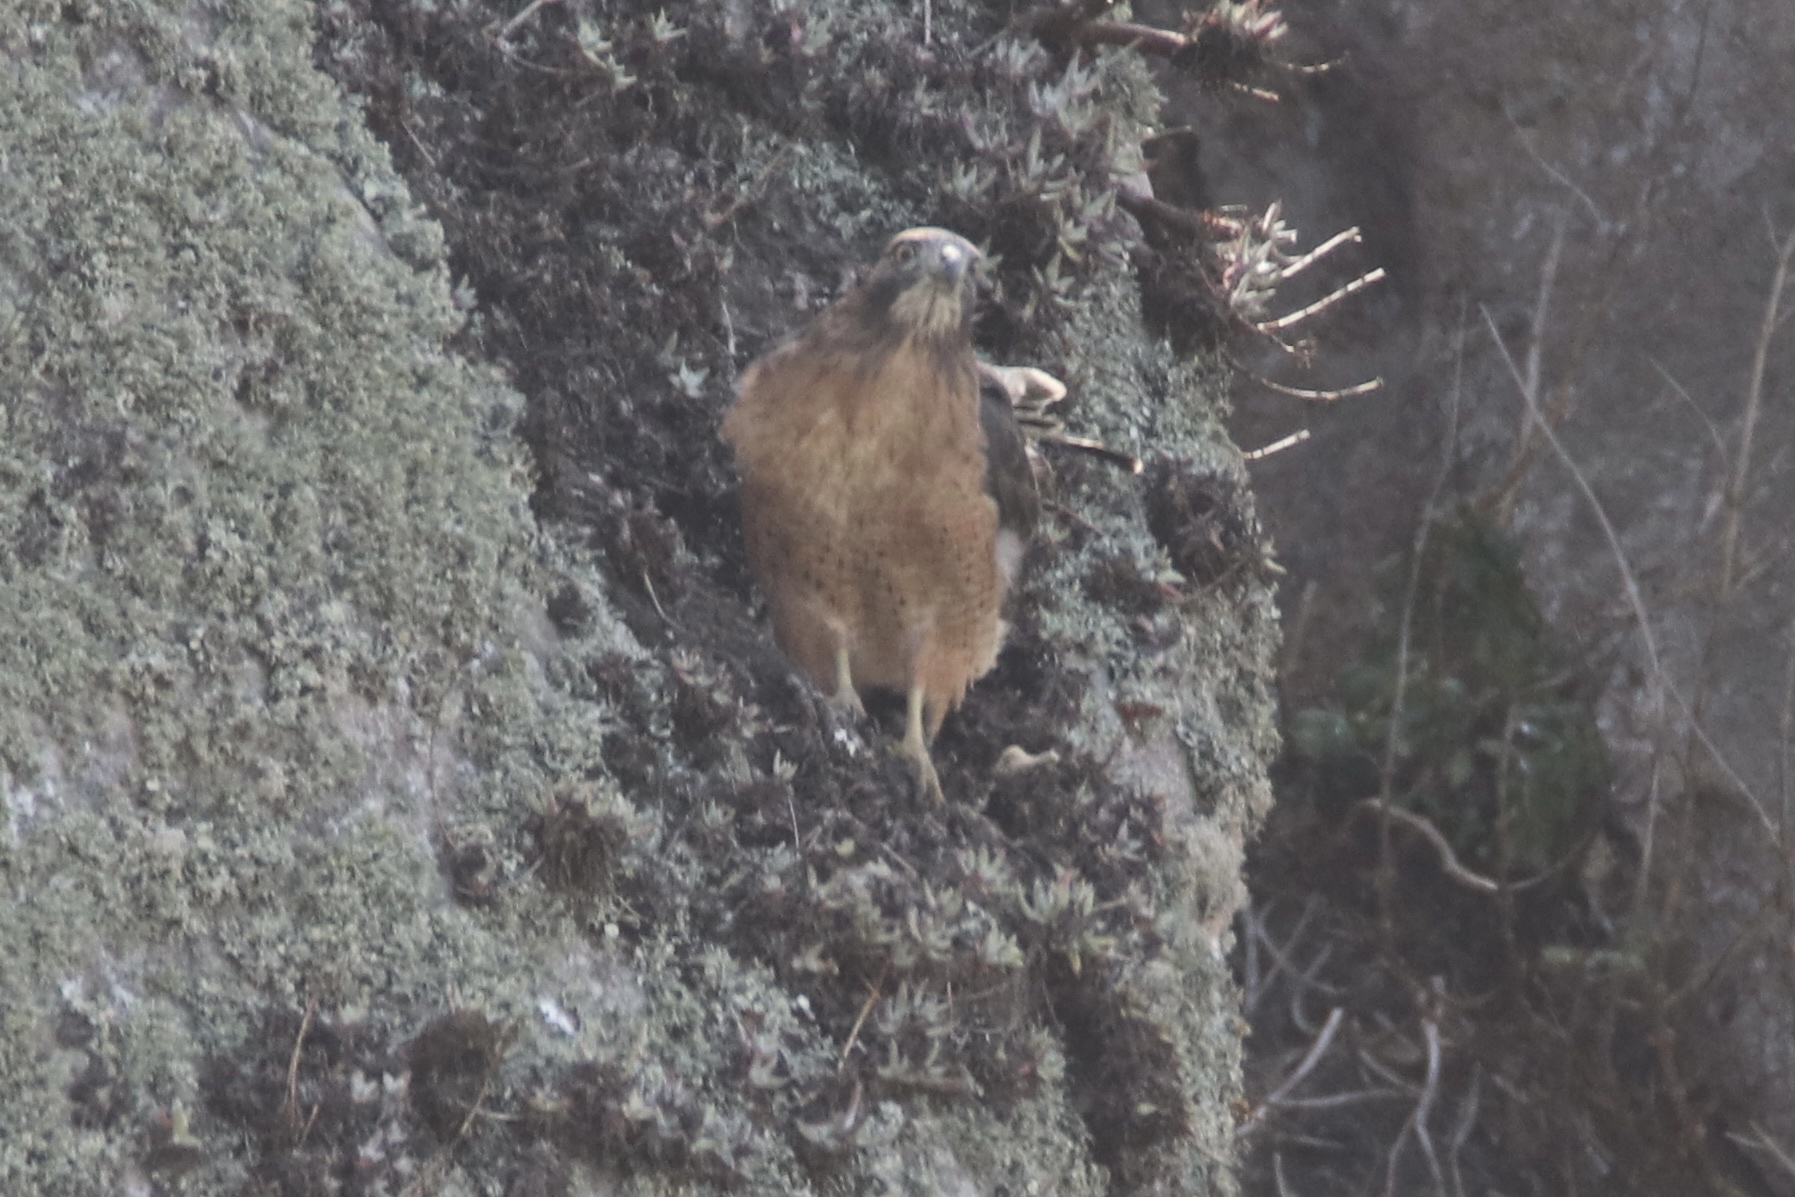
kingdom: Animalia
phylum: Chordata
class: Aves
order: Accipitriformes
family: Accipitridae
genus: Buteo
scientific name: Buteo jamaicensis
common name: Red-tailed hawk
